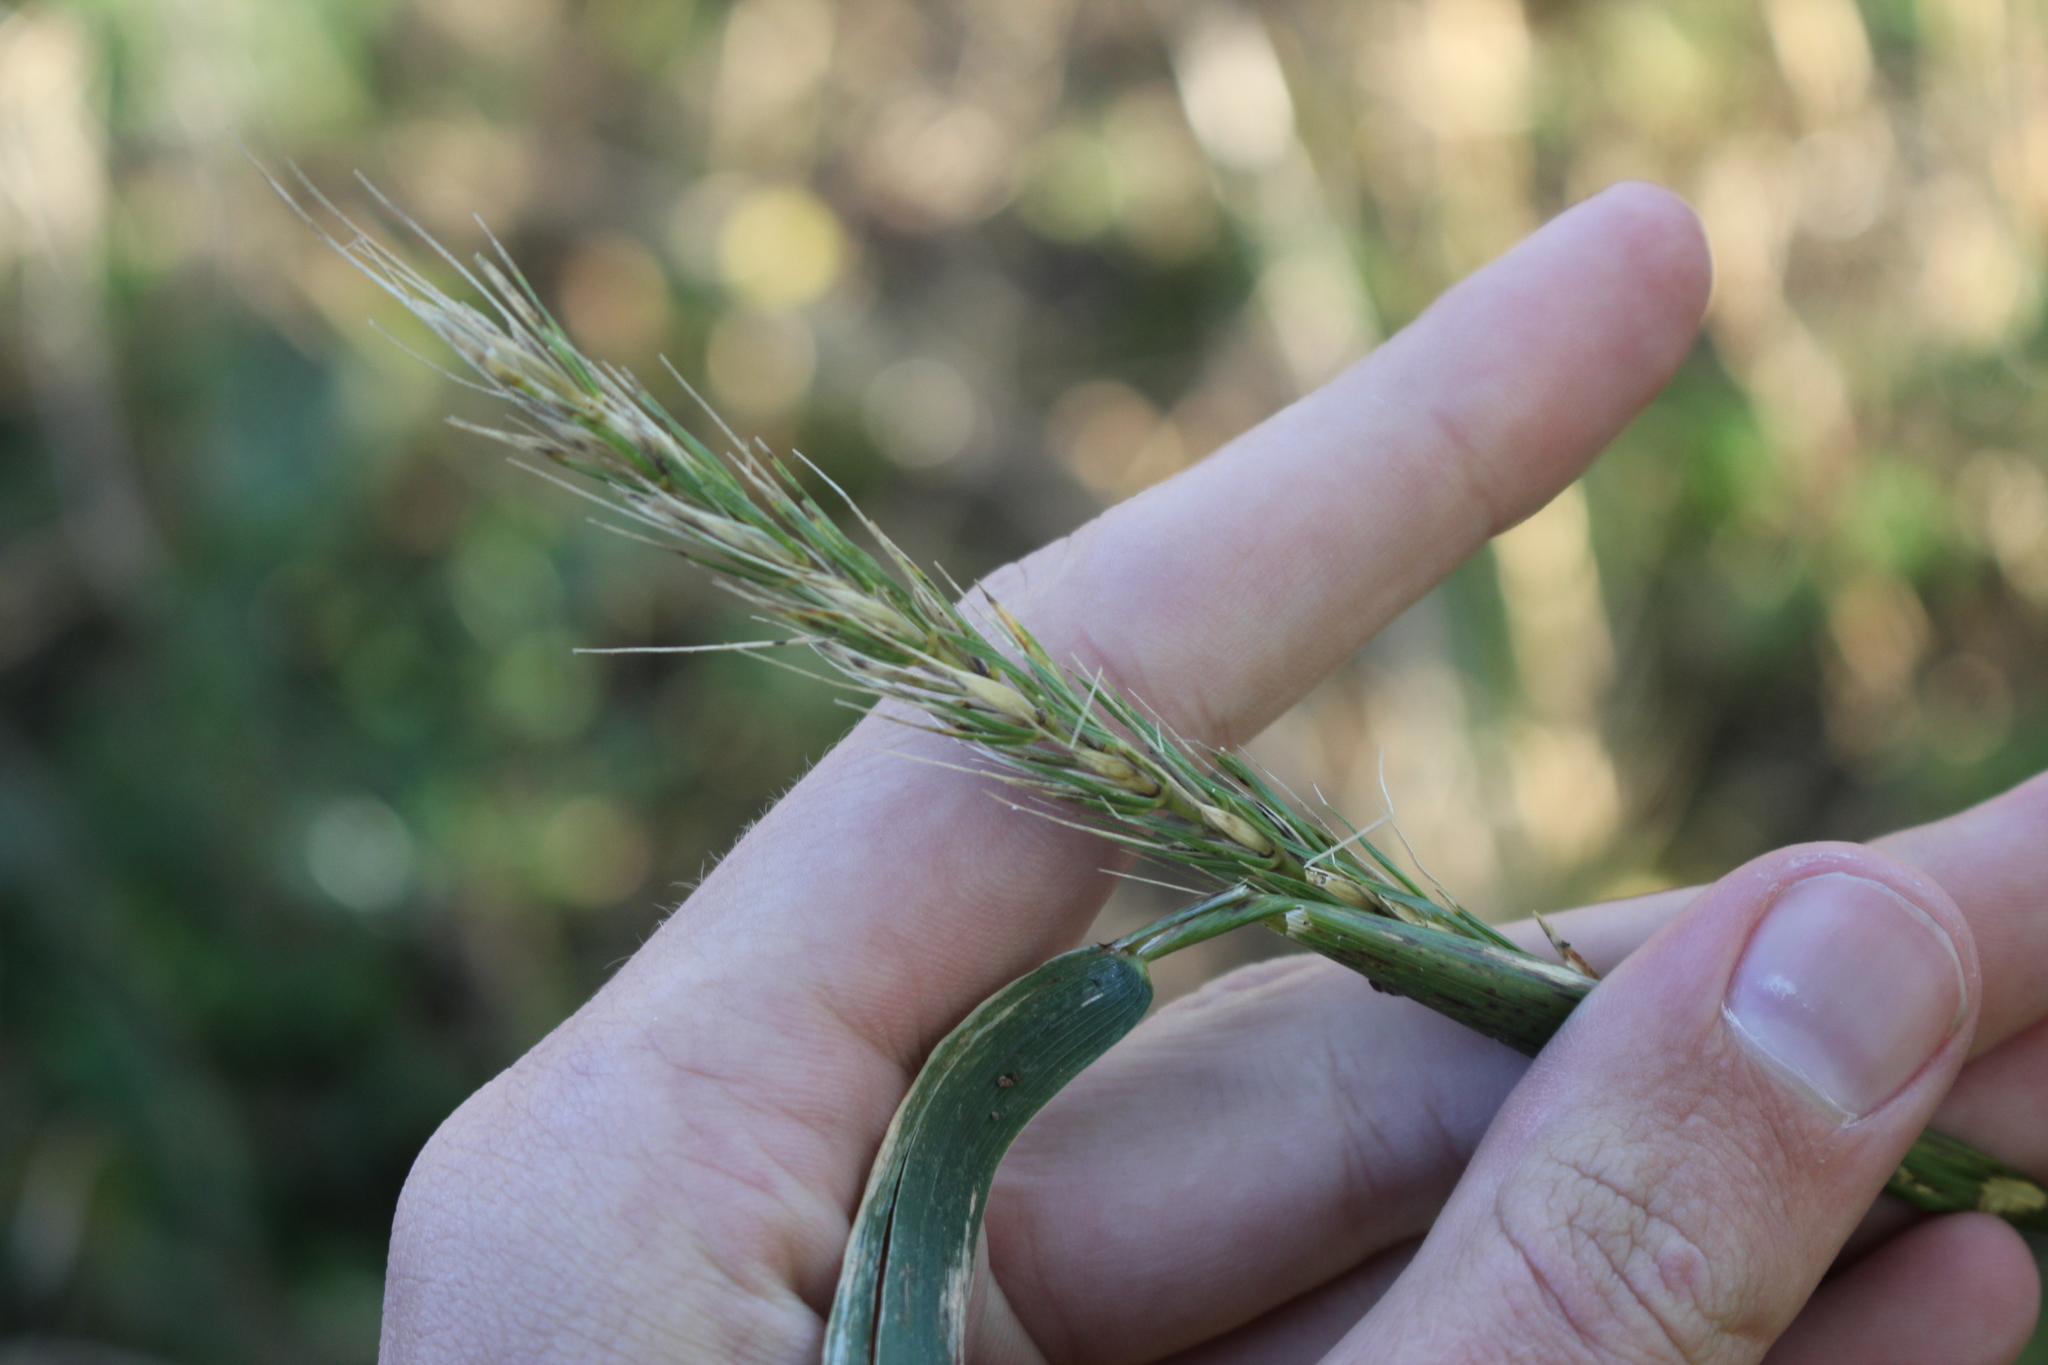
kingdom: Plantae
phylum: Tracheophyta
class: Liliopsida
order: Poales
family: Poaceae
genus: Elymus
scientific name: Elymus virginicus
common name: Common eastern wildrye
